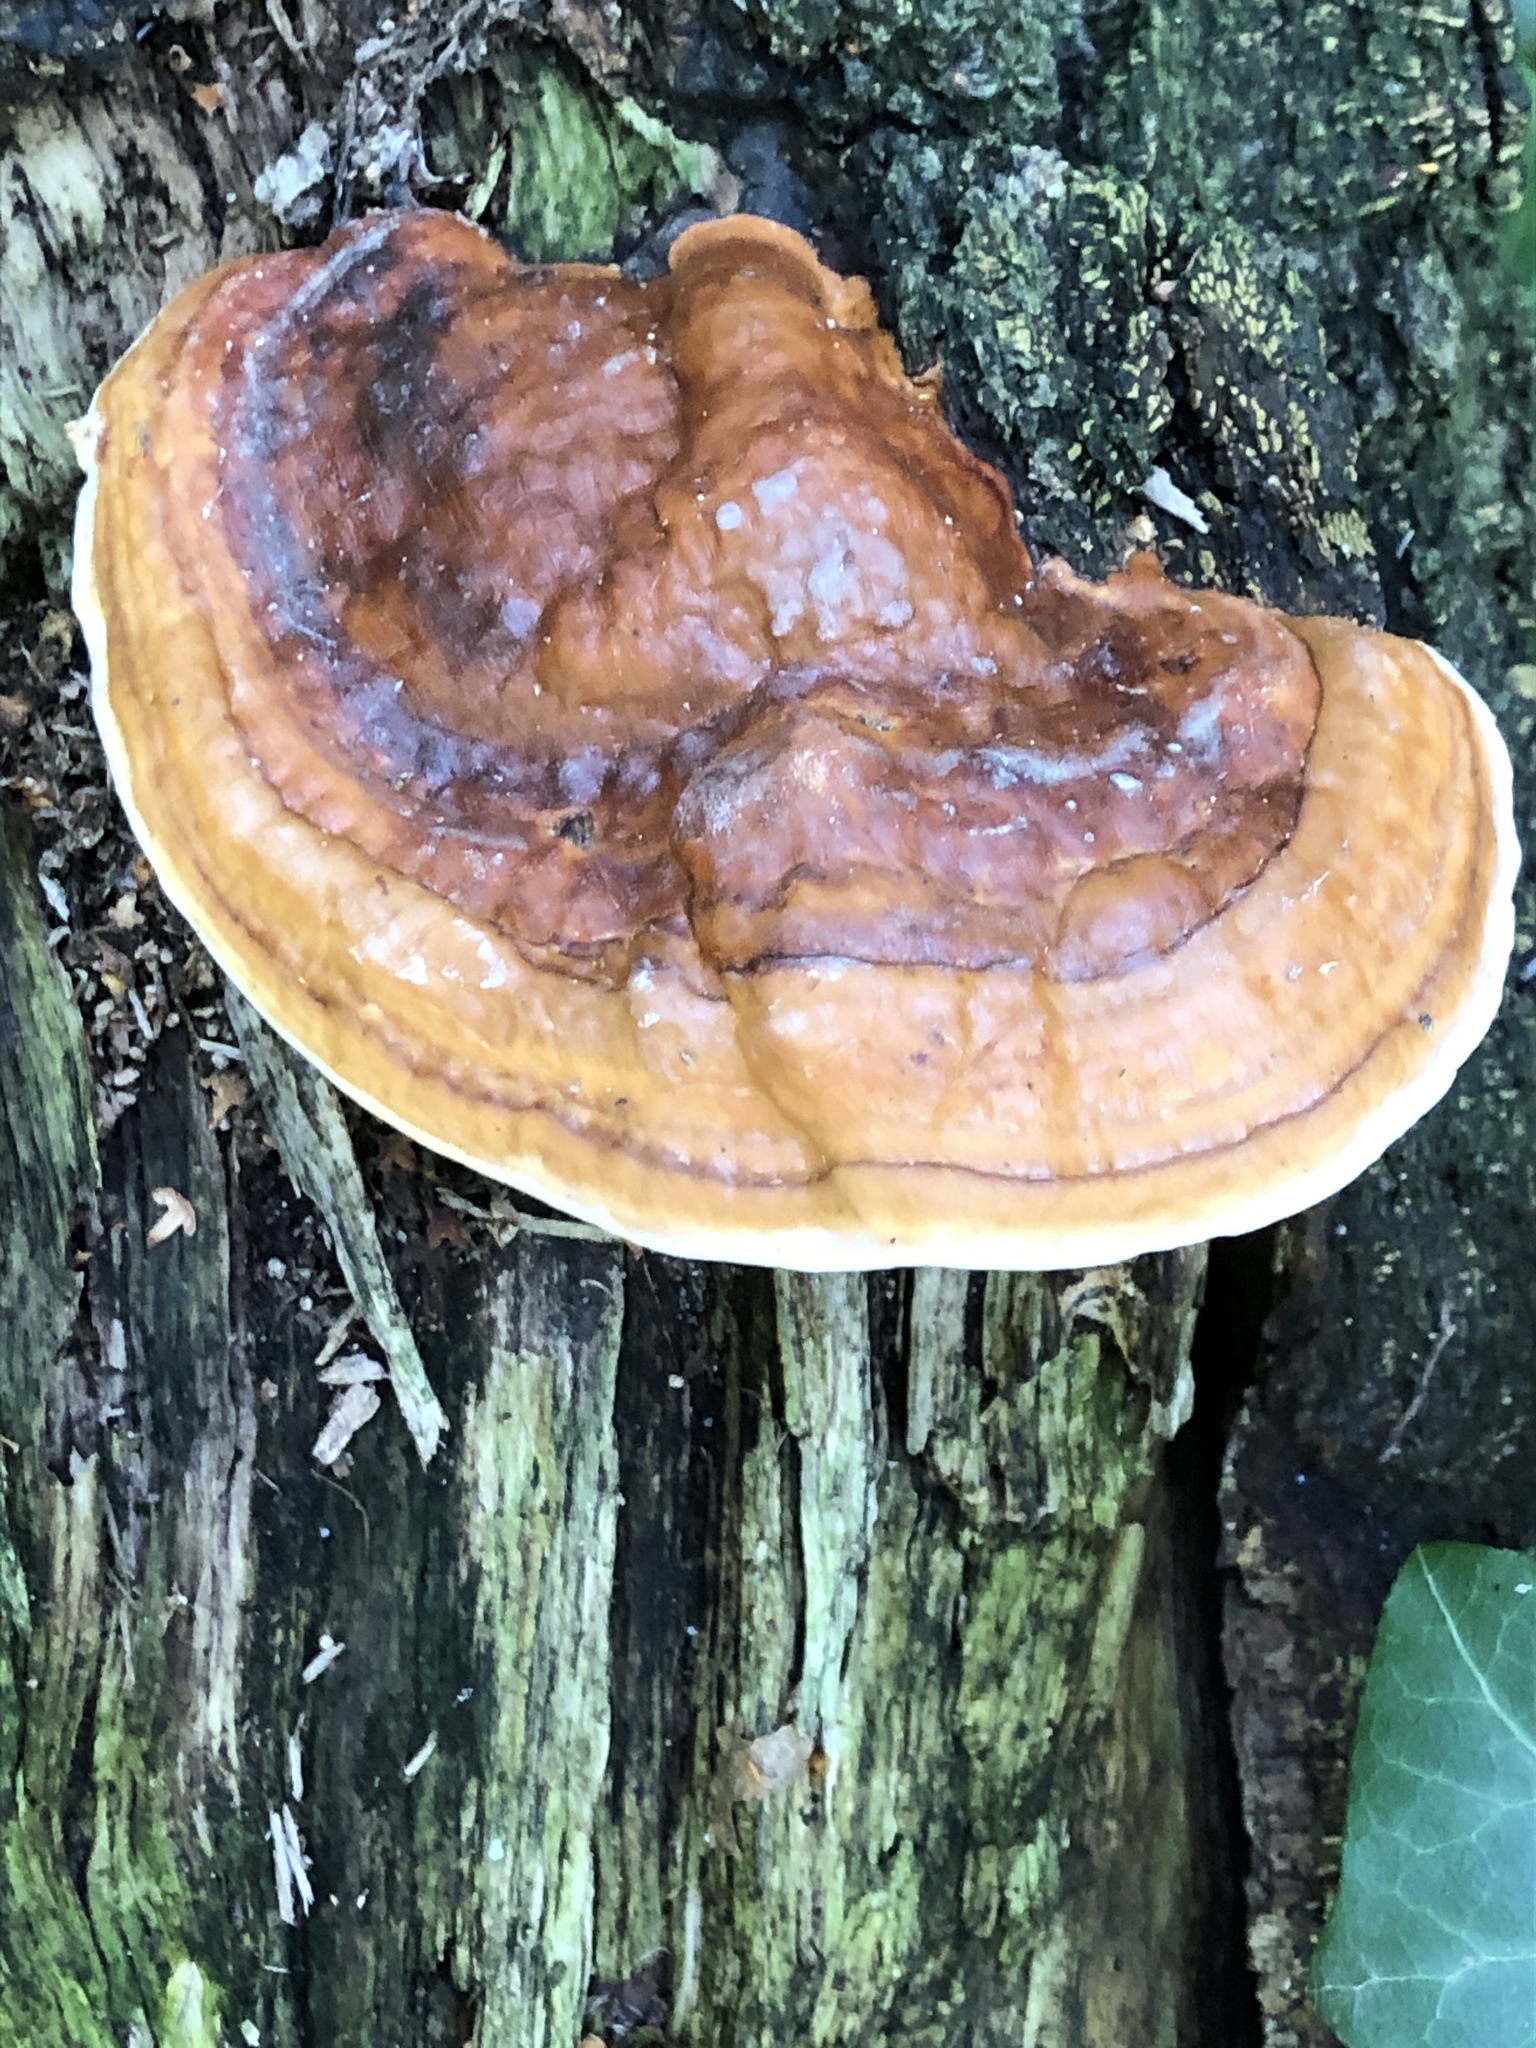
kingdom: Fungi
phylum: Basidiomycota
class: Agaricomycetes
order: Polyporales
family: Fomitopsidaceae
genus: Fomitopsis
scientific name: Fomitopsis pinicola
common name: Red-belted bracket
